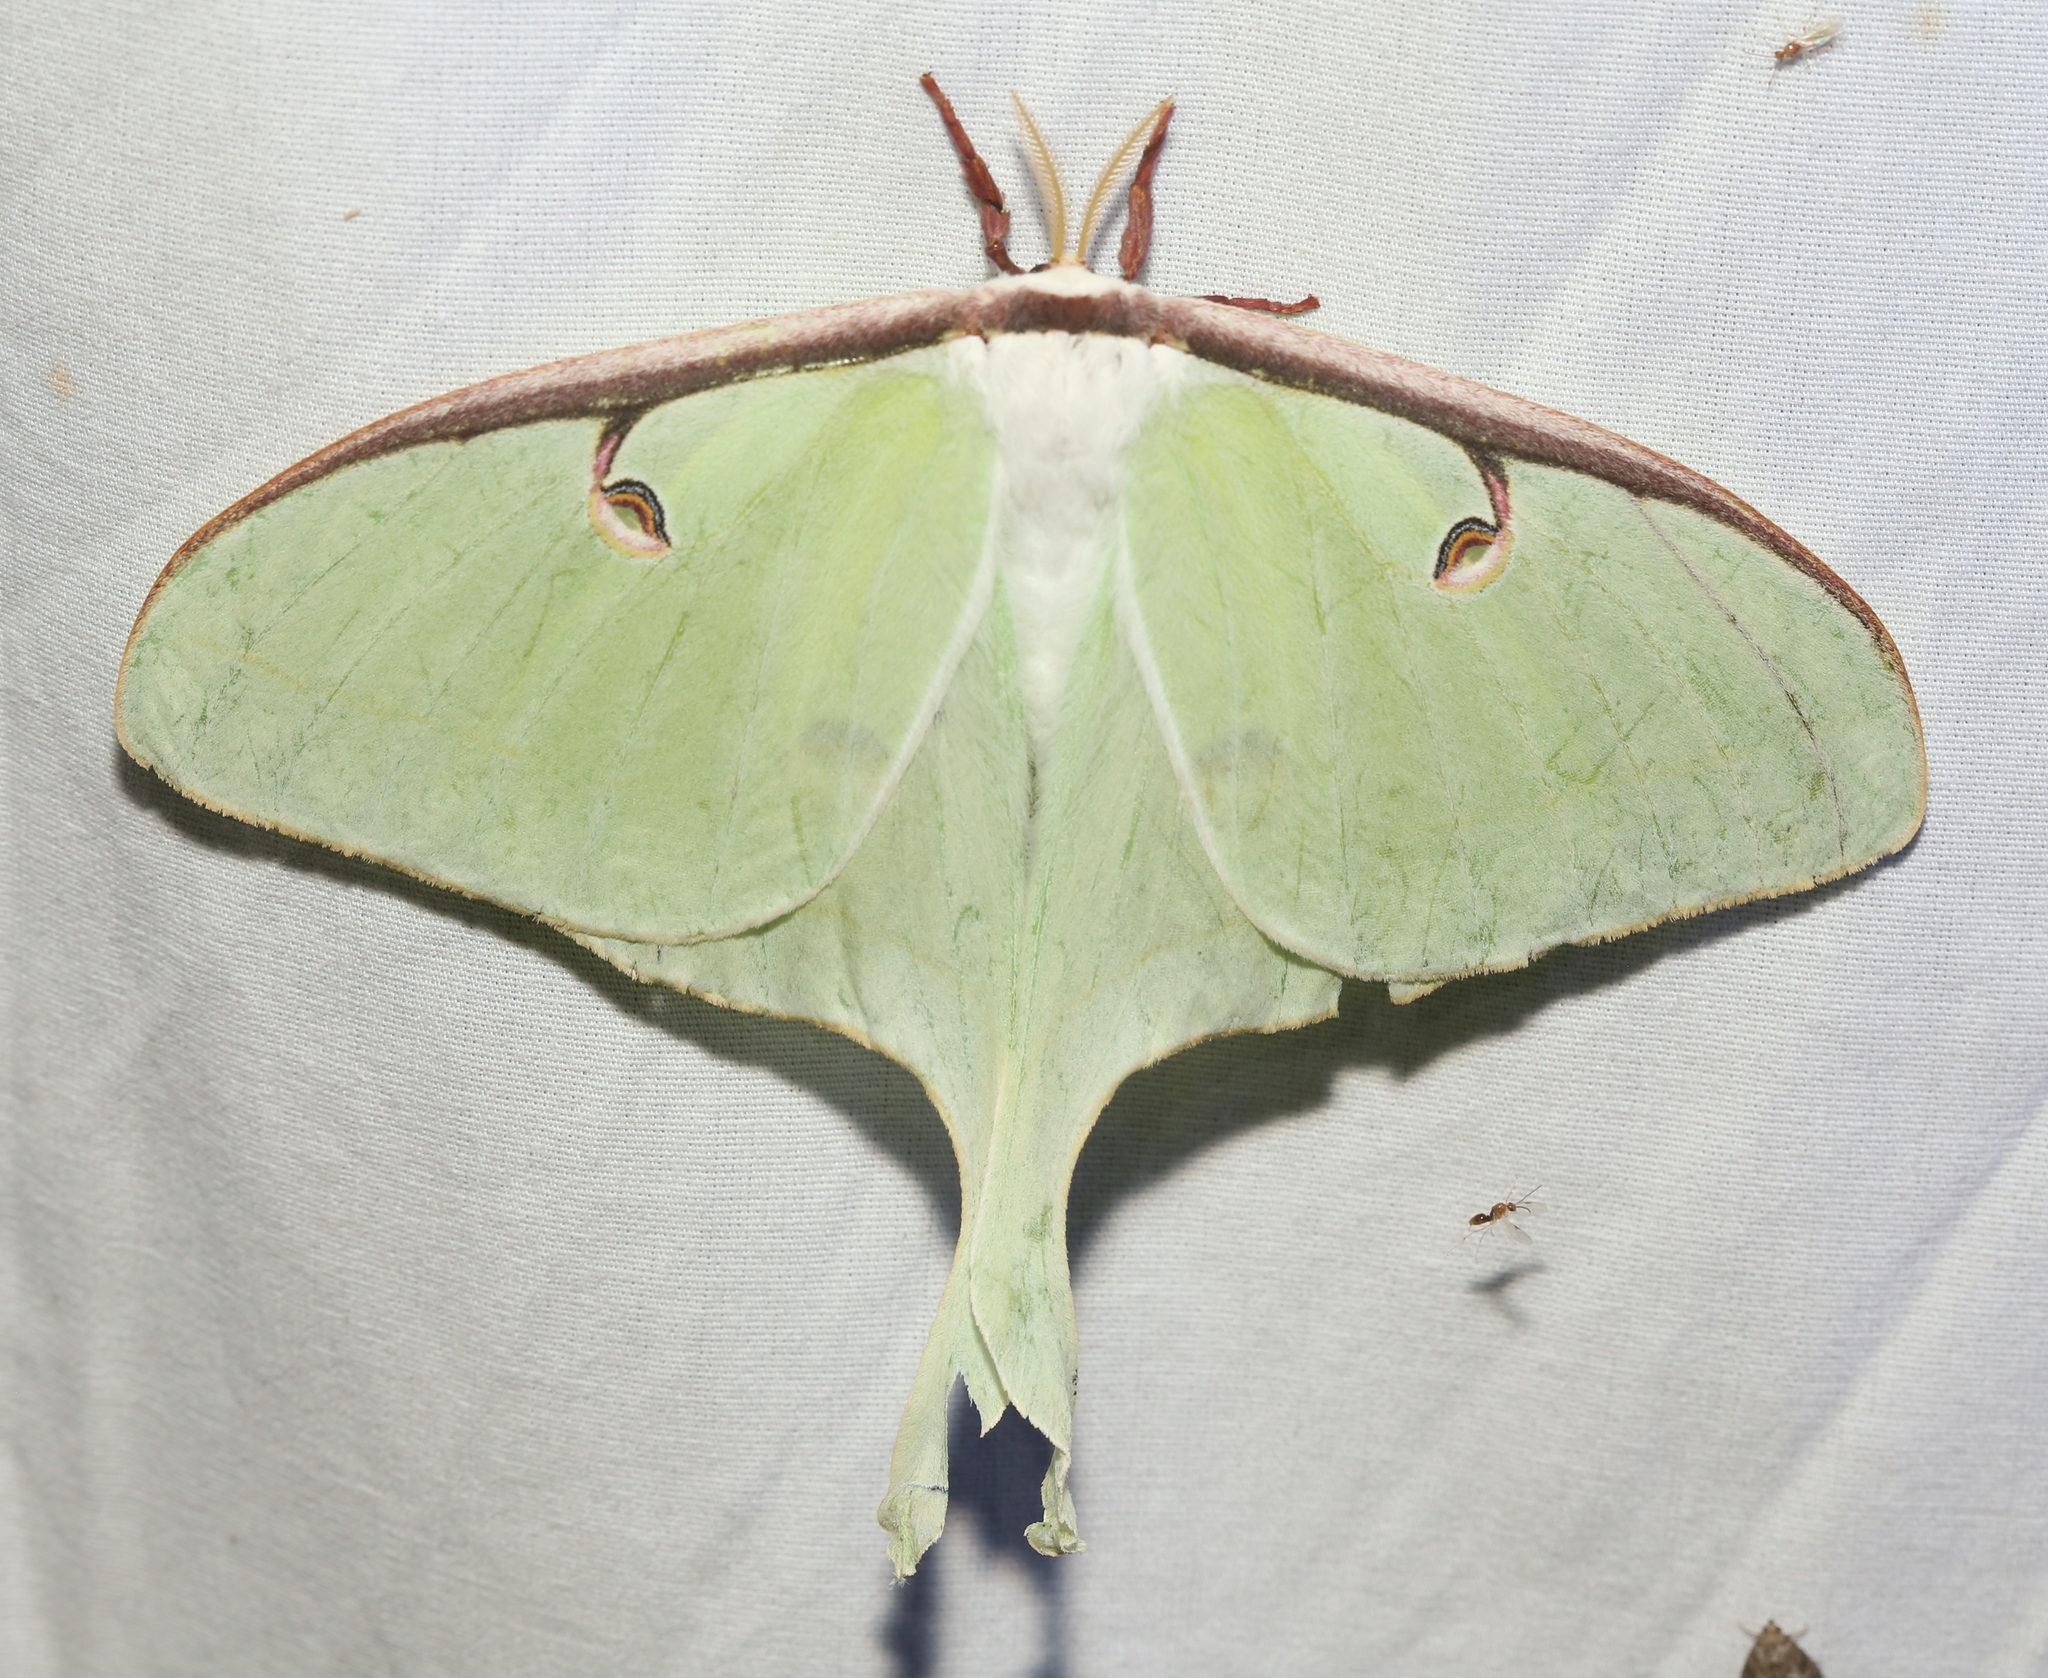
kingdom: Animalia
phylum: Arthropoda
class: Insecta
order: Lepidoptera
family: Saturniidae
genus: Actias
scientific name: Actias luna
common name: Luna moth
